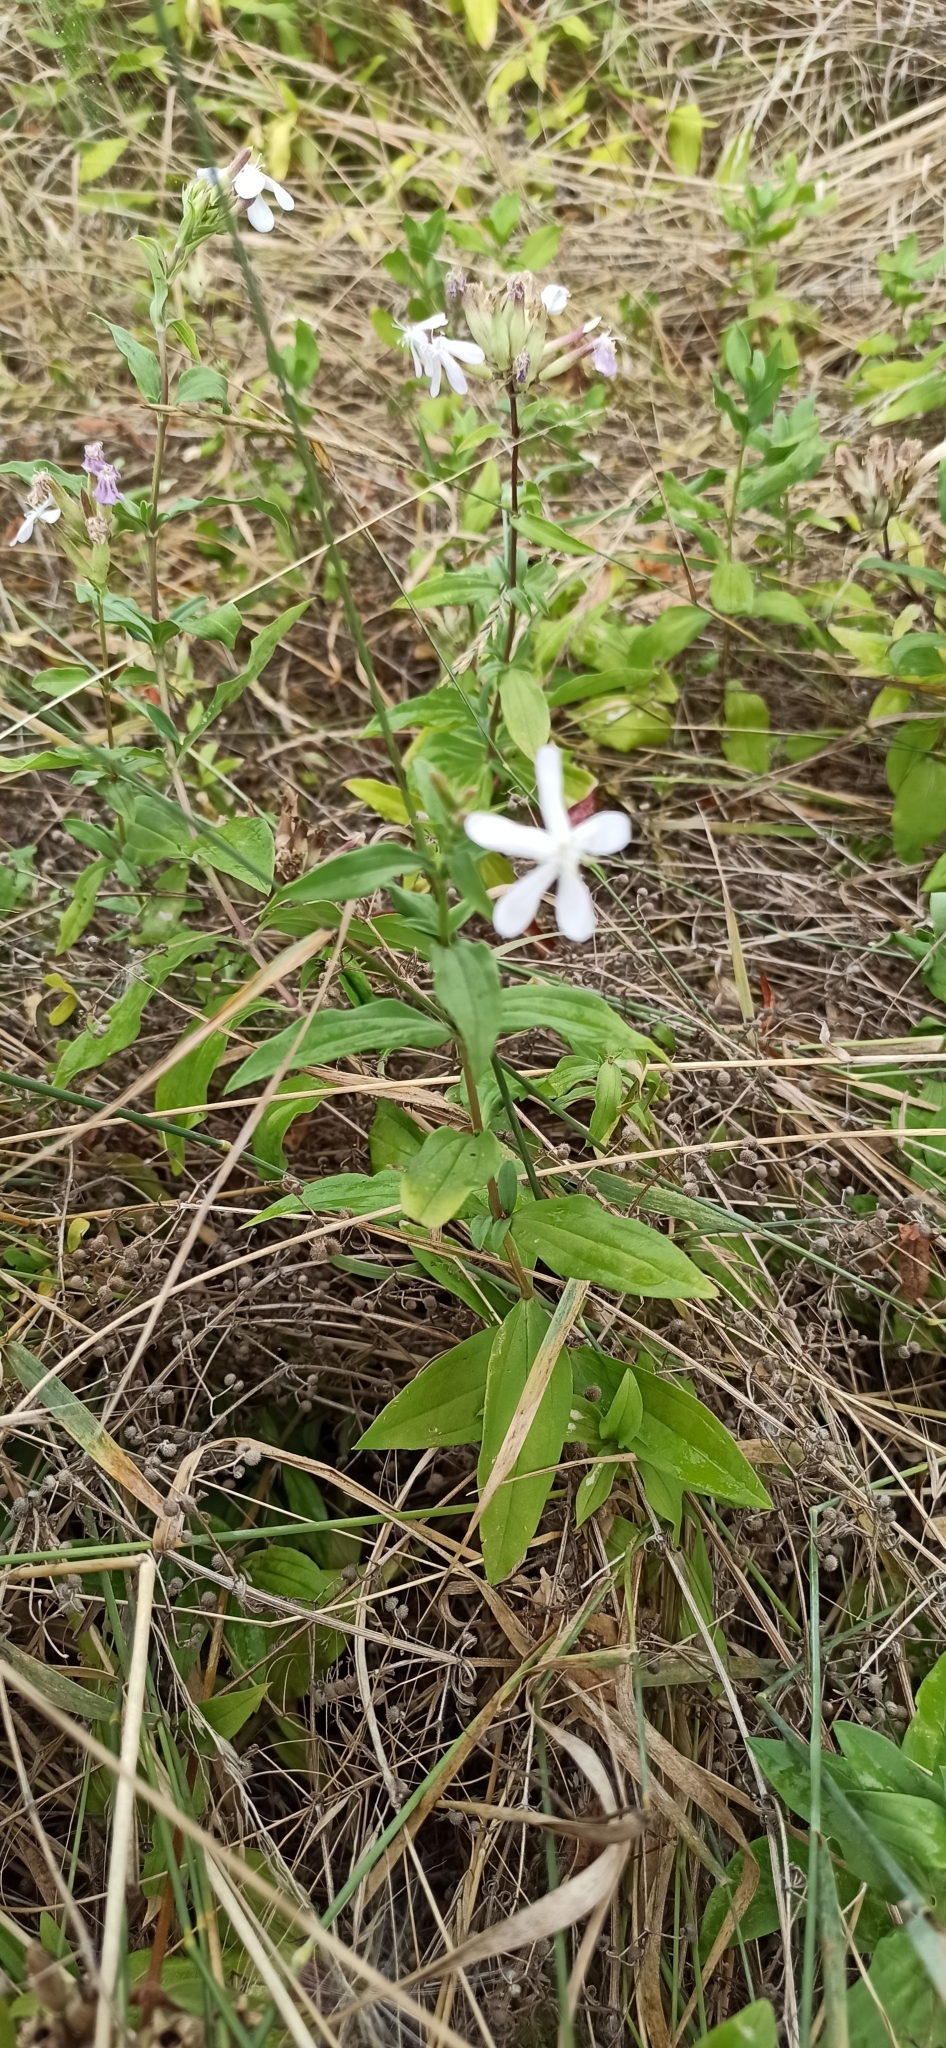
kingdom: Plantae
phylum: Tracheophyta
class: Magnoliopsida
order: Caryophyllales
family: Caryophyllaceae
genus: Saponaria
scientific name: Saponaria officinalis
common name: Soapwort
